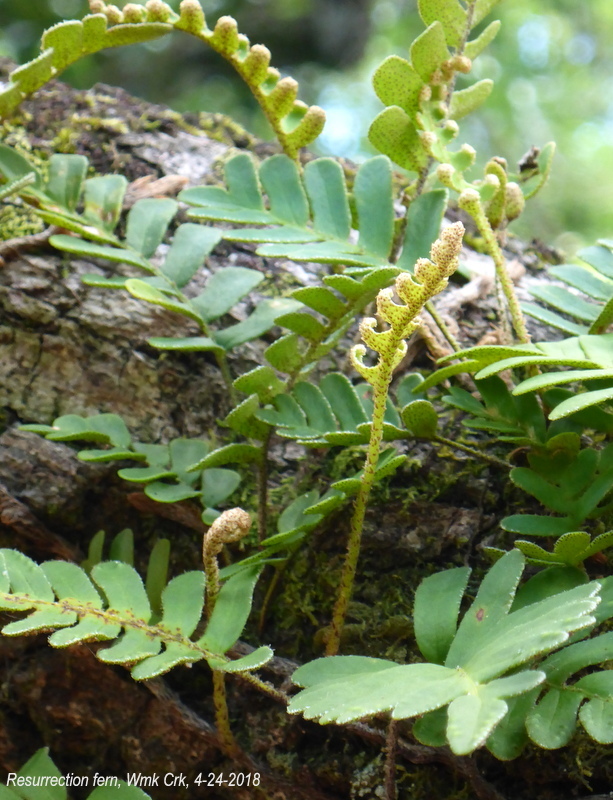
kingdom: Plantae
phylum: Tracheophyta
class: Polypodiopsida
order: Polypodiales
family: Polypodiaceae
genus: Pleopeltis
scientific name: Pleopeltis michauxiana
